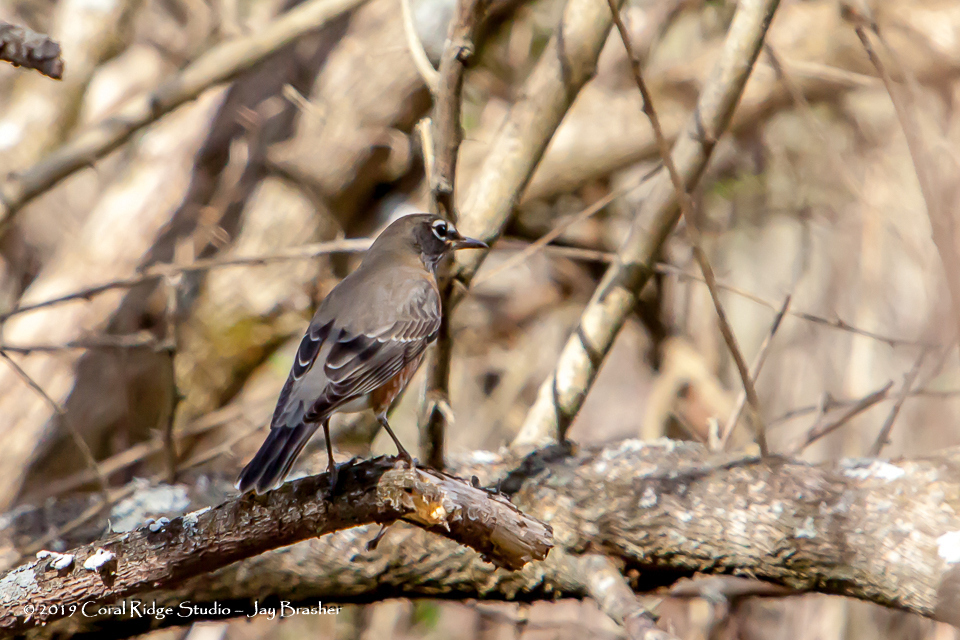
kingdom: Animalia
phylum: Chordata
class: Aves
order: Passeriformes
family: Turdidae
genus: Turdus
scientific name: Turdus migratorius
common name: American robin
